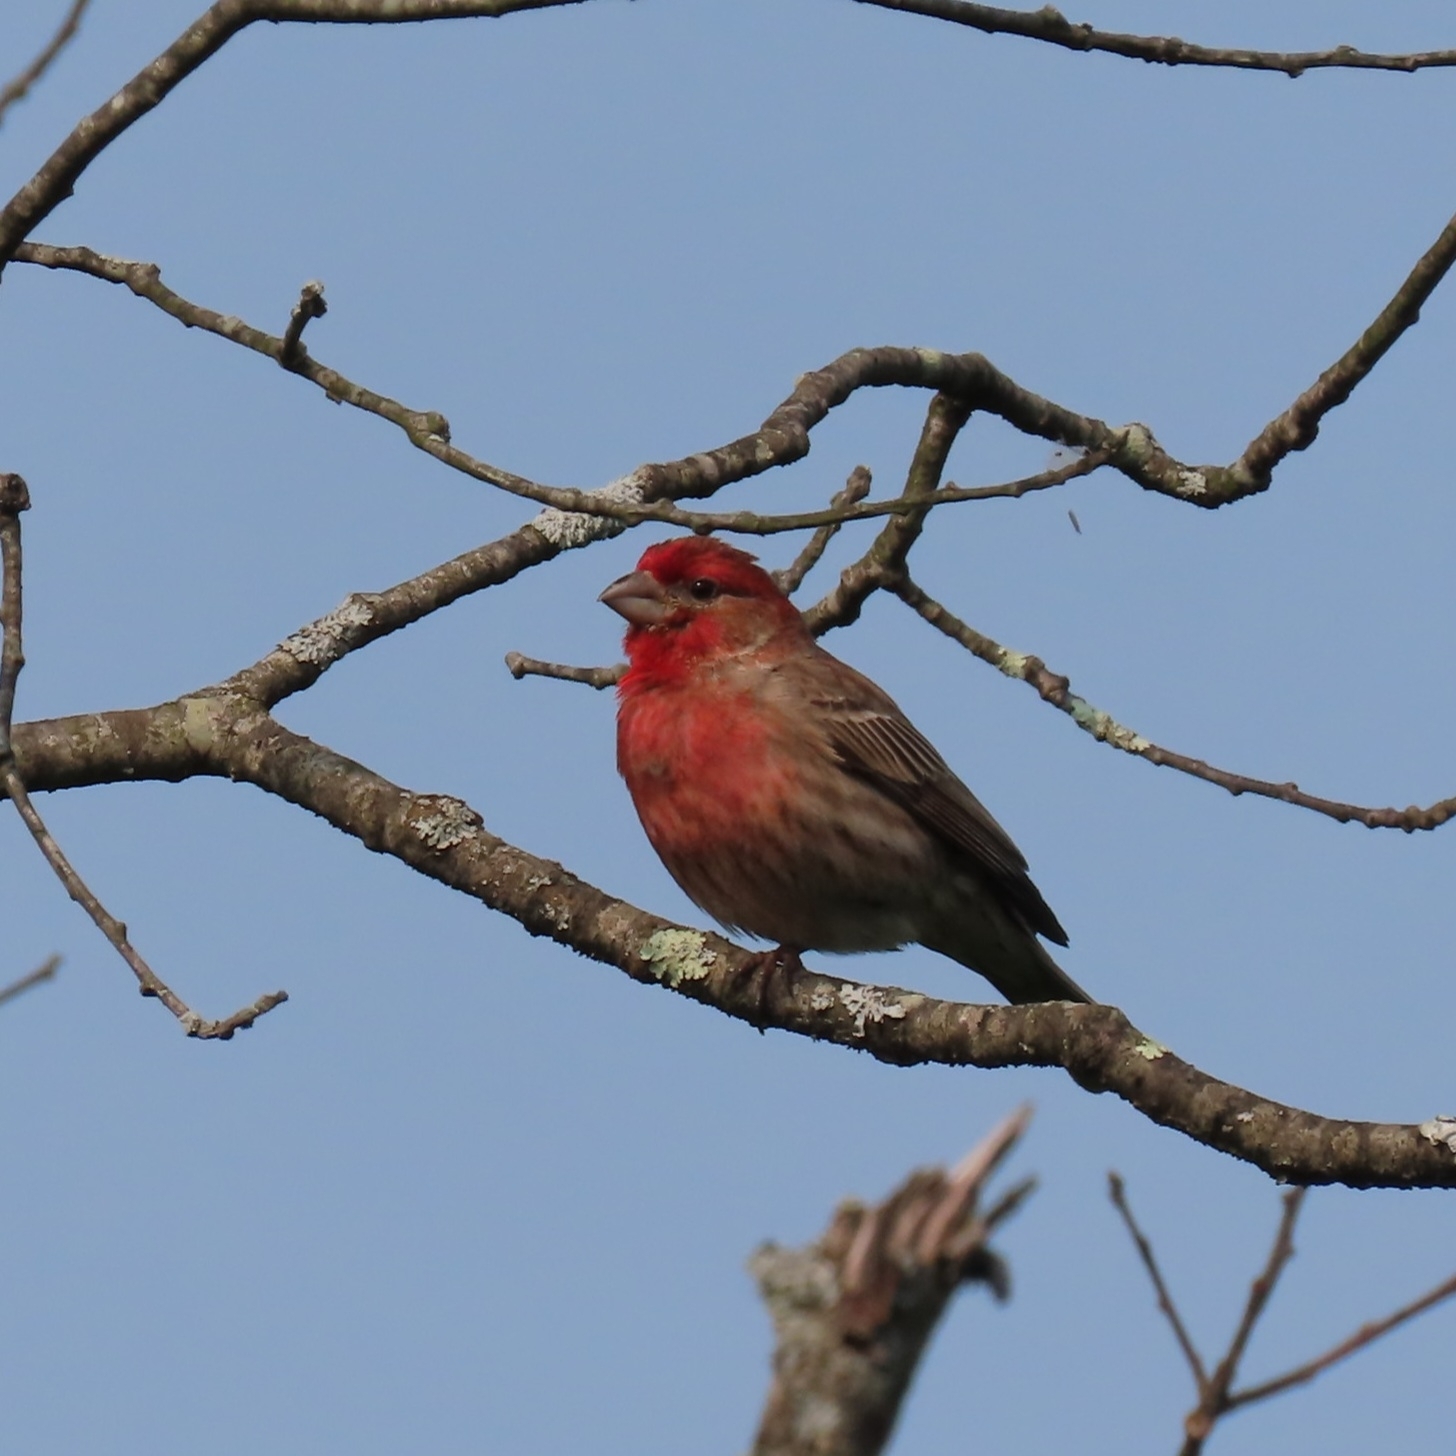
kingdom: Animalia
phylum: Chordata
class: Aves
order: Passeriformes
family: Fringillidae
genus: Haemorhous
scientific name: Haemorhous mexicanus
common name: House finch
